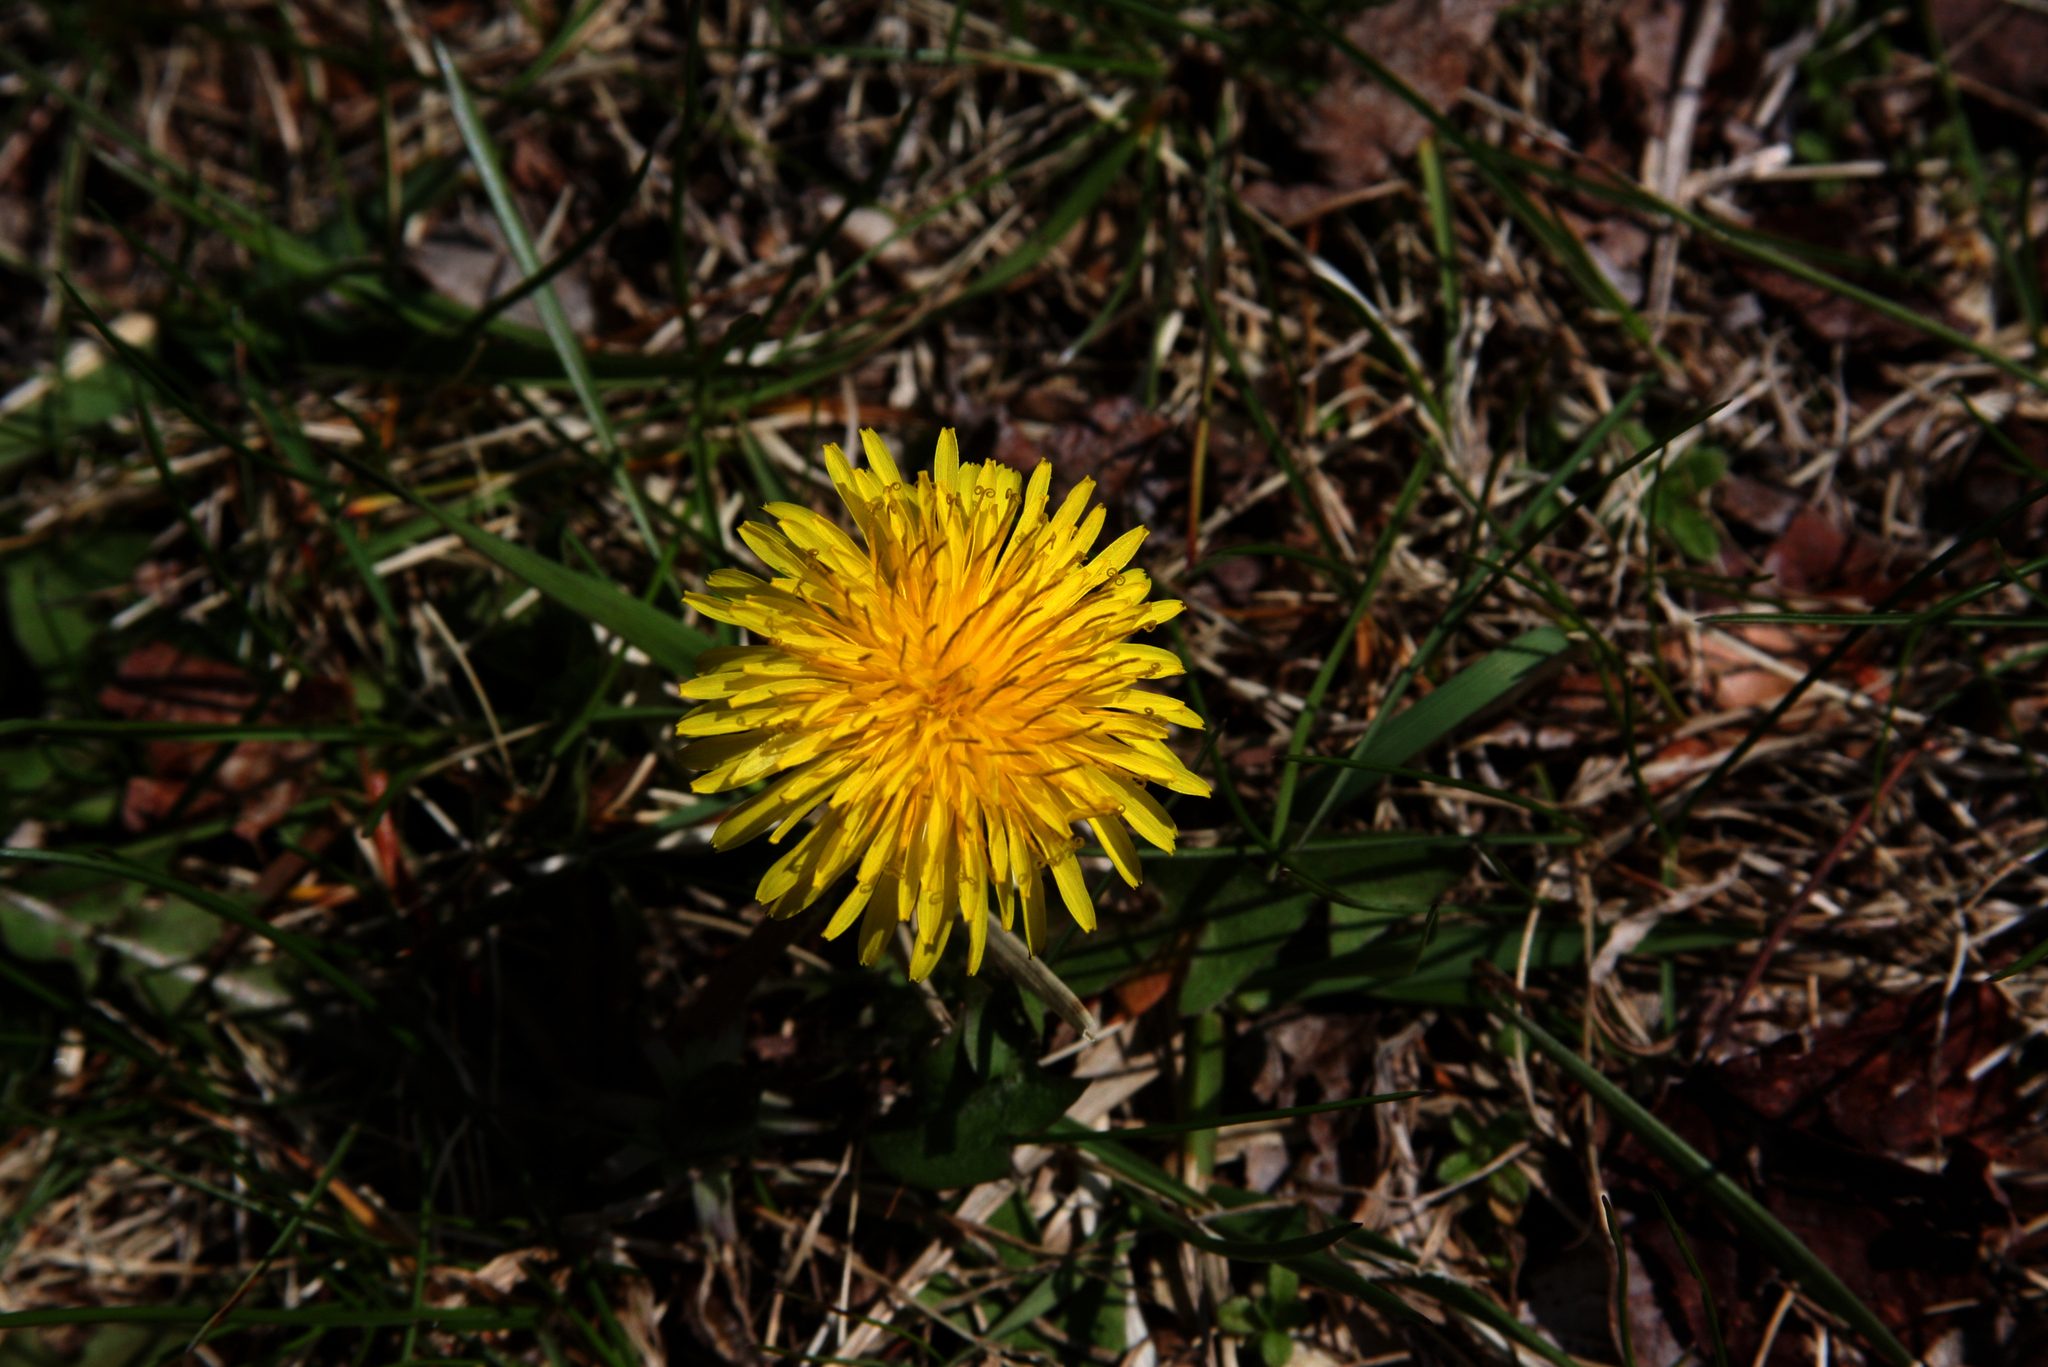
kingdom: Plantae
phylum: Tracheophyta
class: Magnoliopsida
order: Asterales
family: Asteraceae
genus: Taraxacum
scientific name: Taraxacum officinale
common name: Common dandelion
